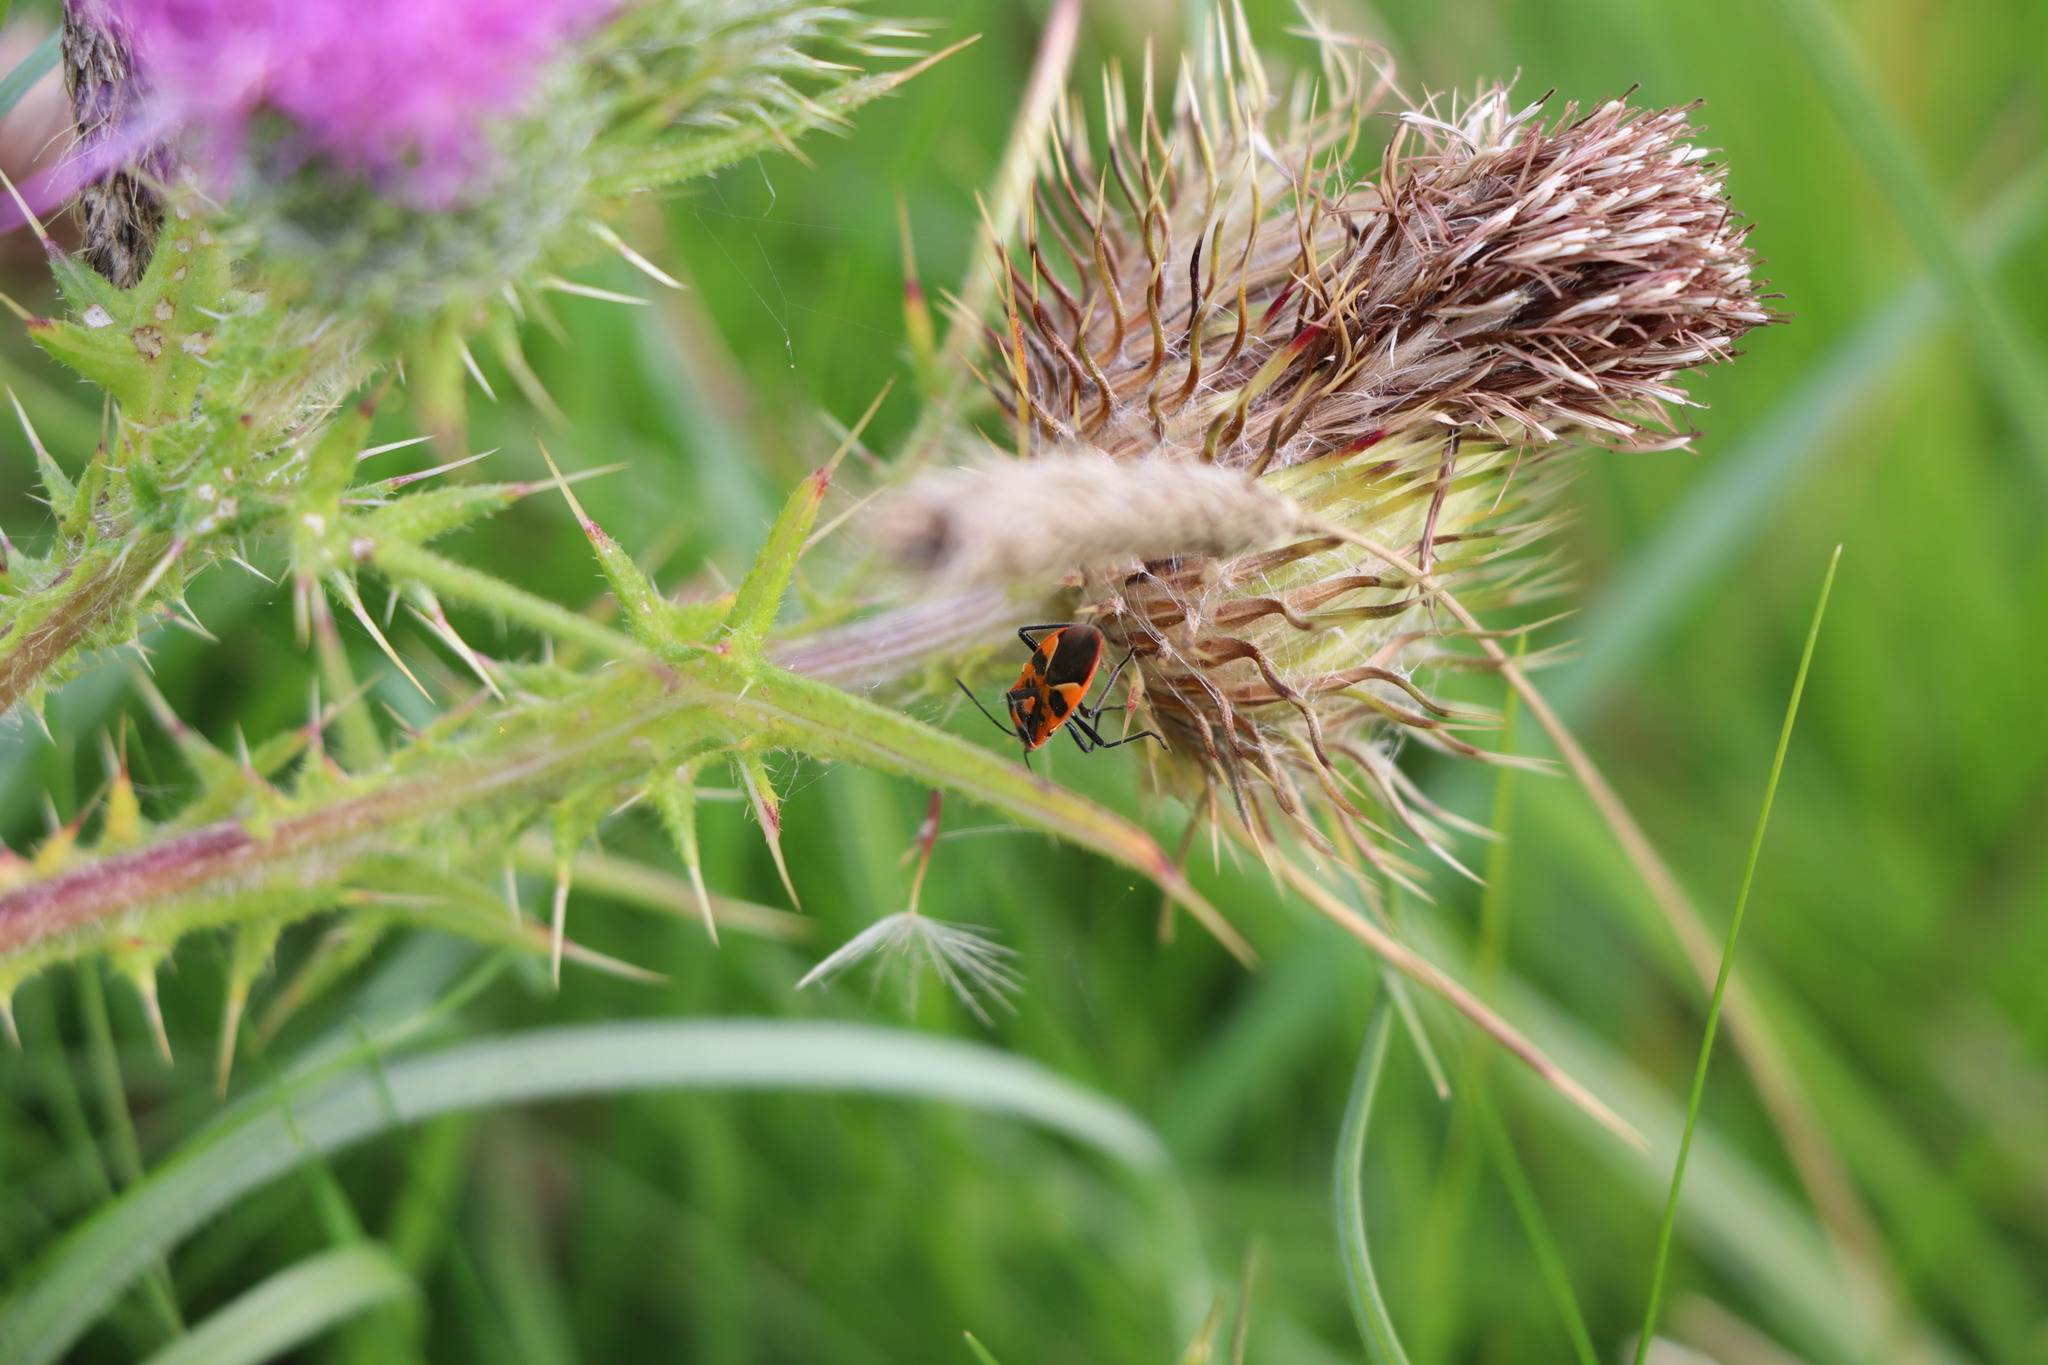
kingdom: Animalia
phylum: Arthropoda
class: Insecta
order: Hemiptera
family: Rhopalidae
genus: Corizus
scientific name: Corizus hyoscyami
